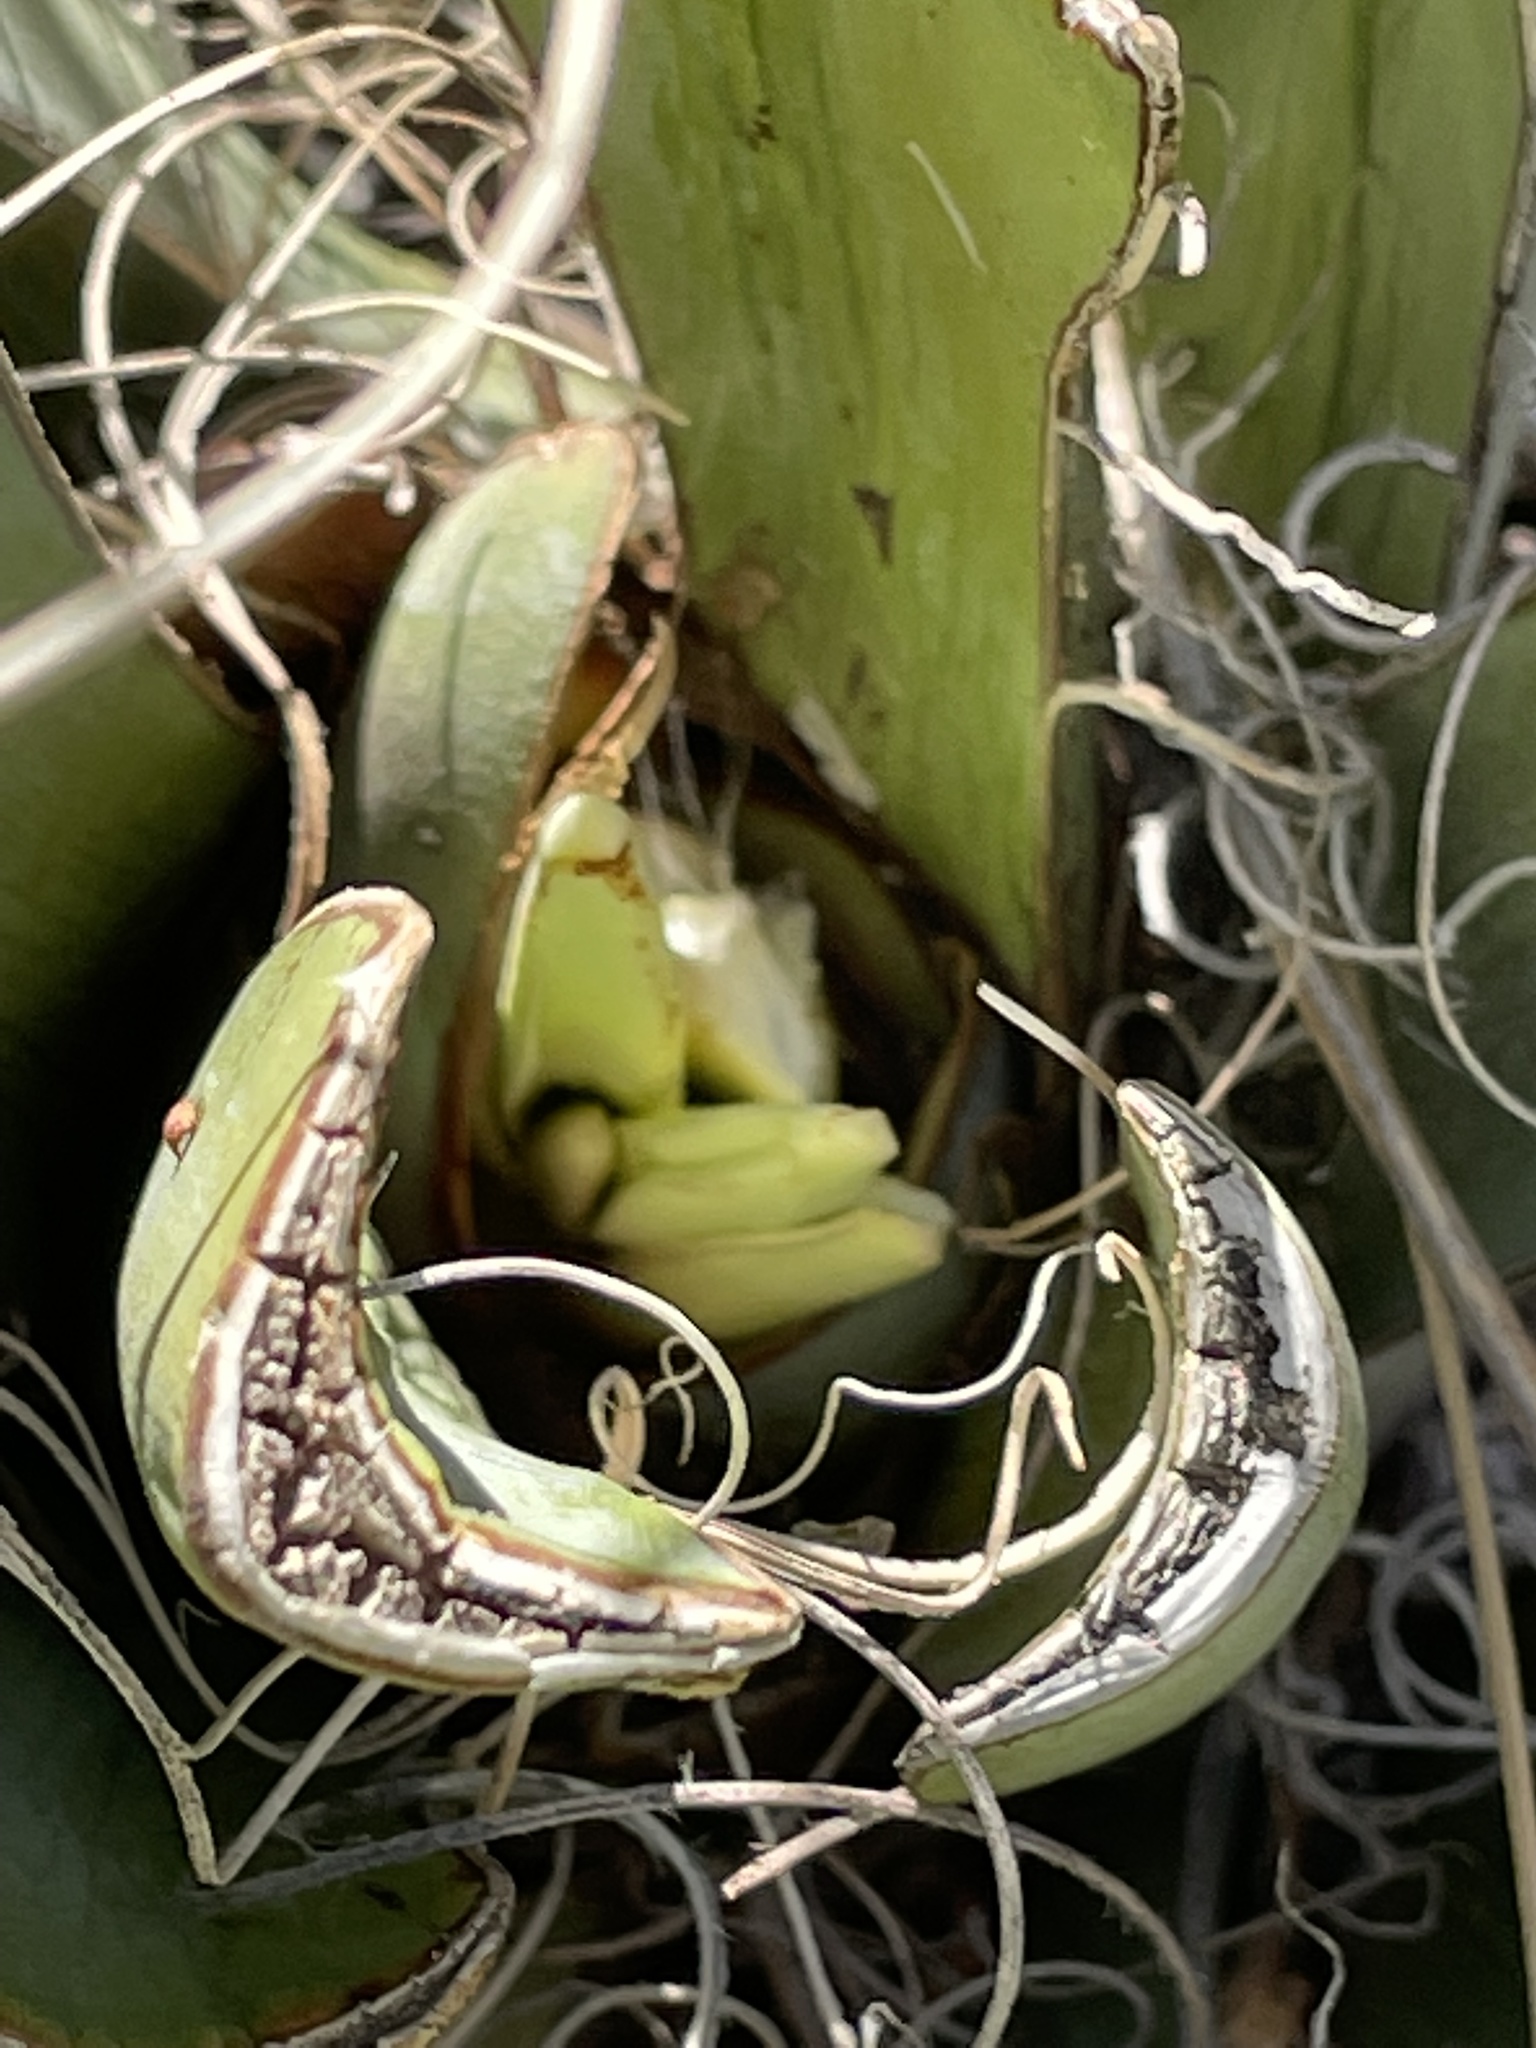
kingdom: Plantae
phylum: Tracheophyta
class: Liliopsida
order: Asparagales
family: Asparagaceae
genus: Yucca
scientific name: Yucca baccata
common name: Banana yucca
